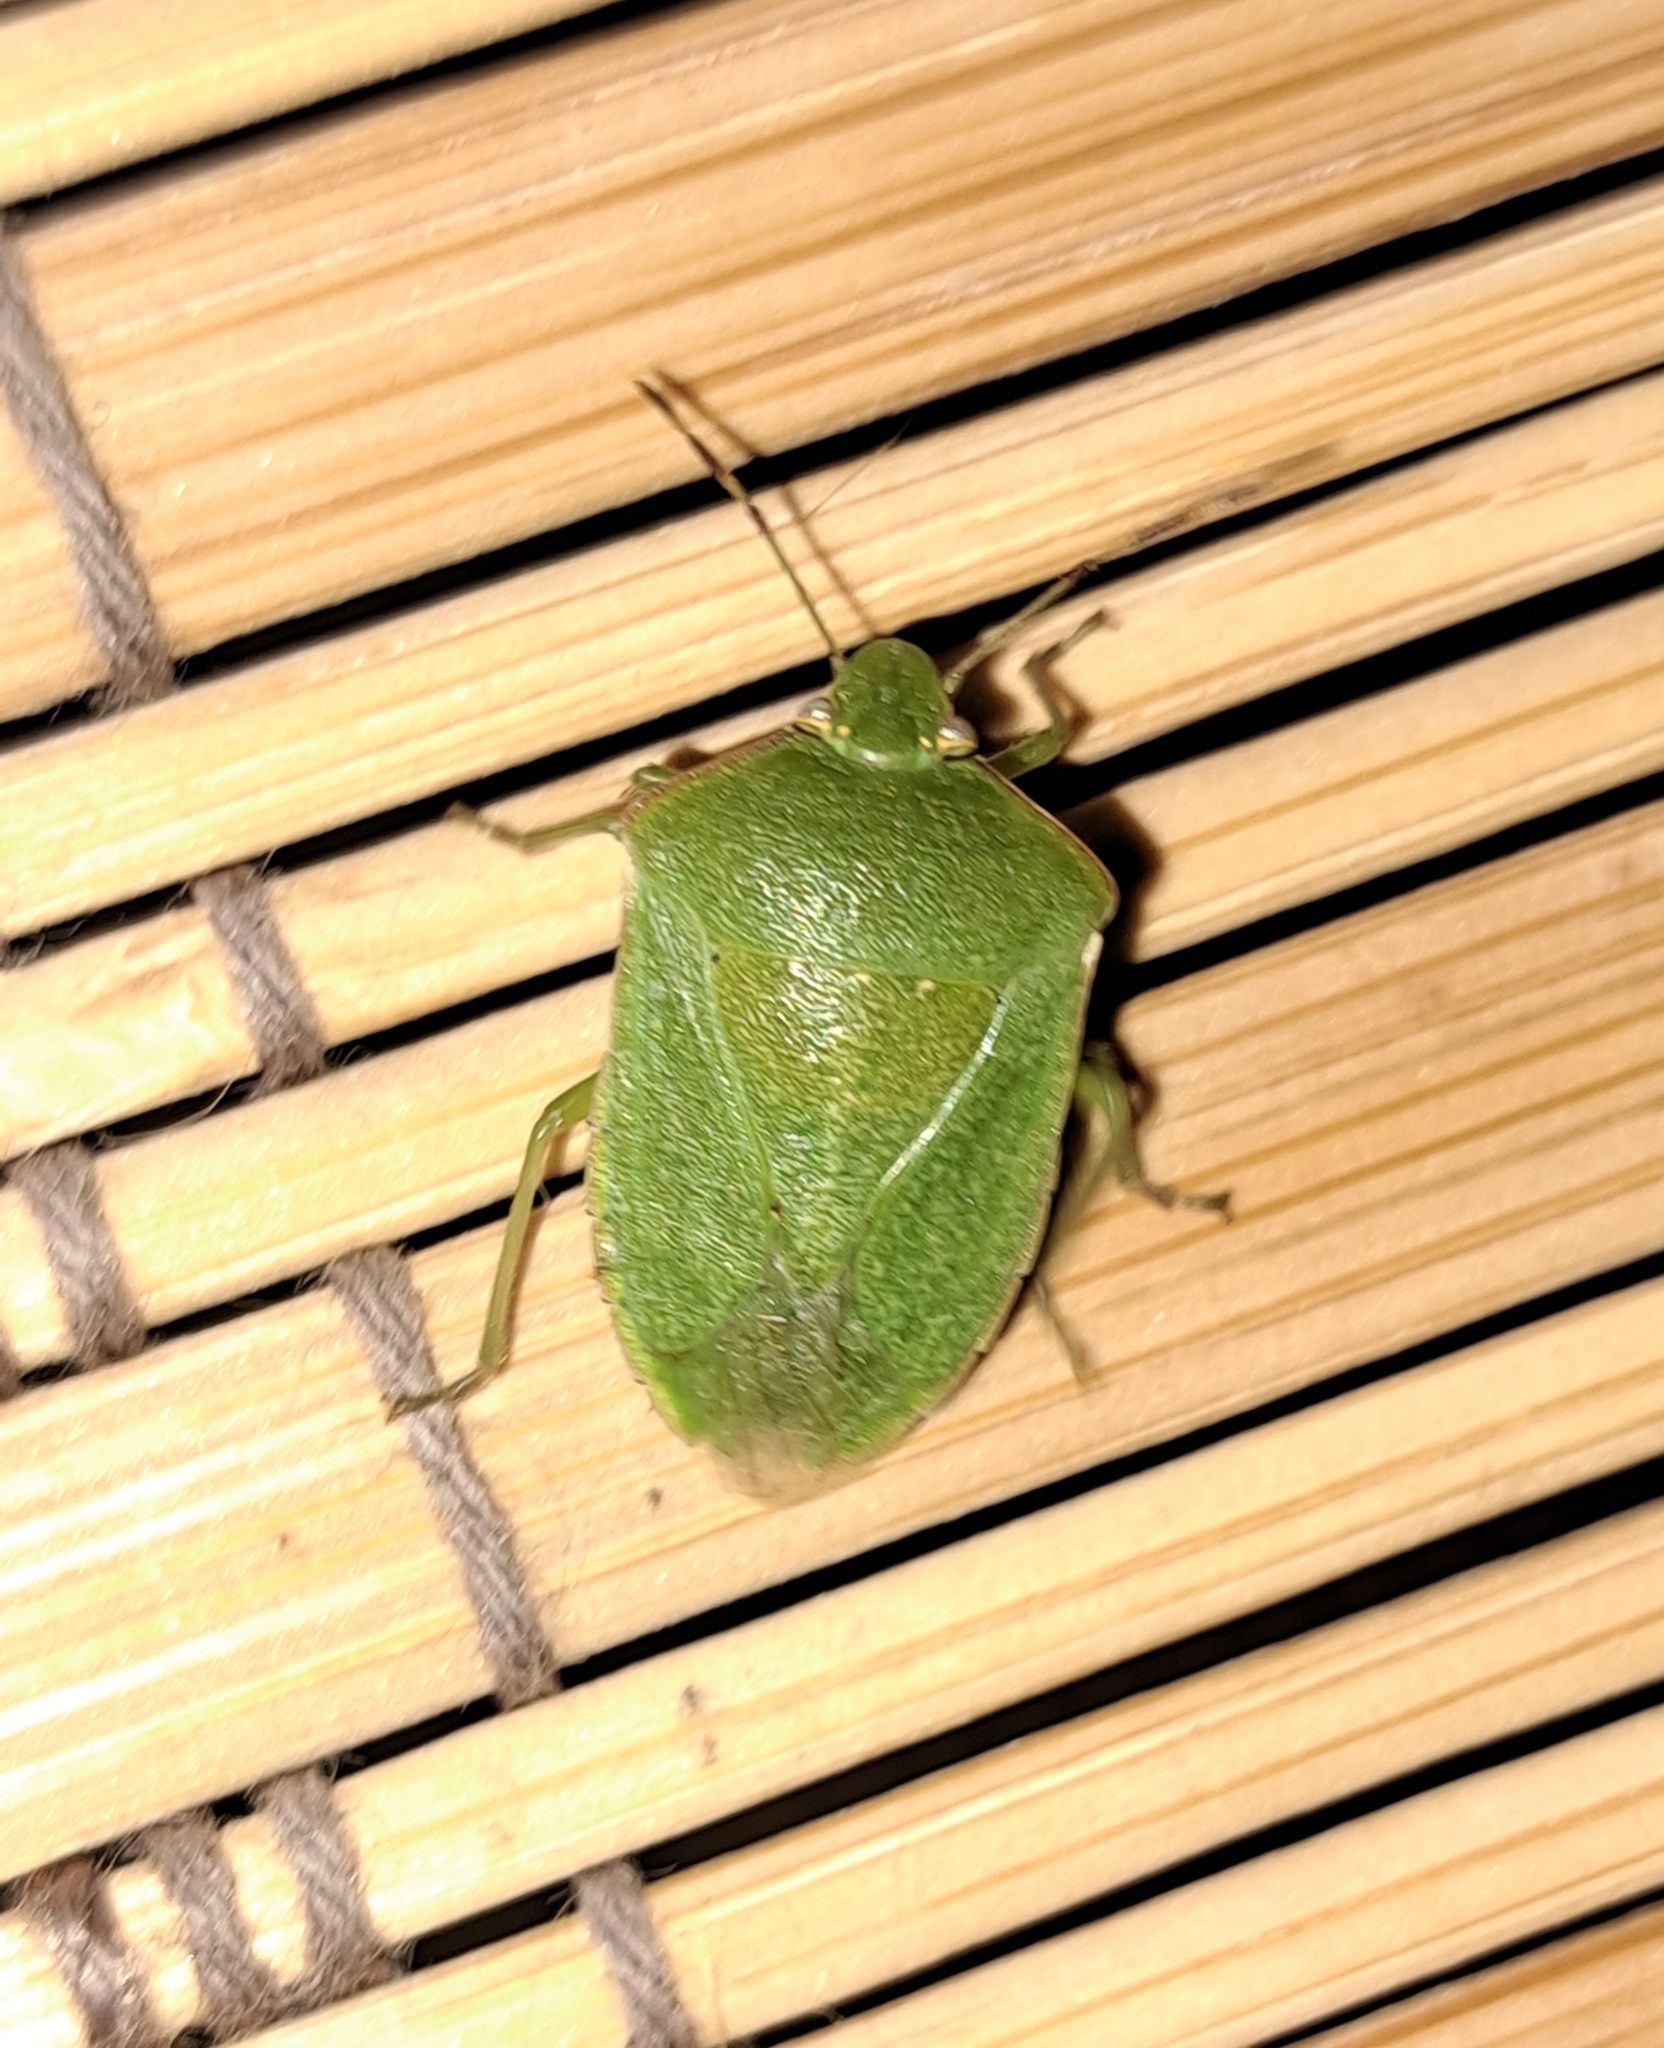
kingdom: Animalia
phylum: Arthropoda
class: Insecta
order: Hemiptera
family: Pentatomidae
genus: Nezara
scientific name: Nezara viridula
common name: Southern green stink bug
